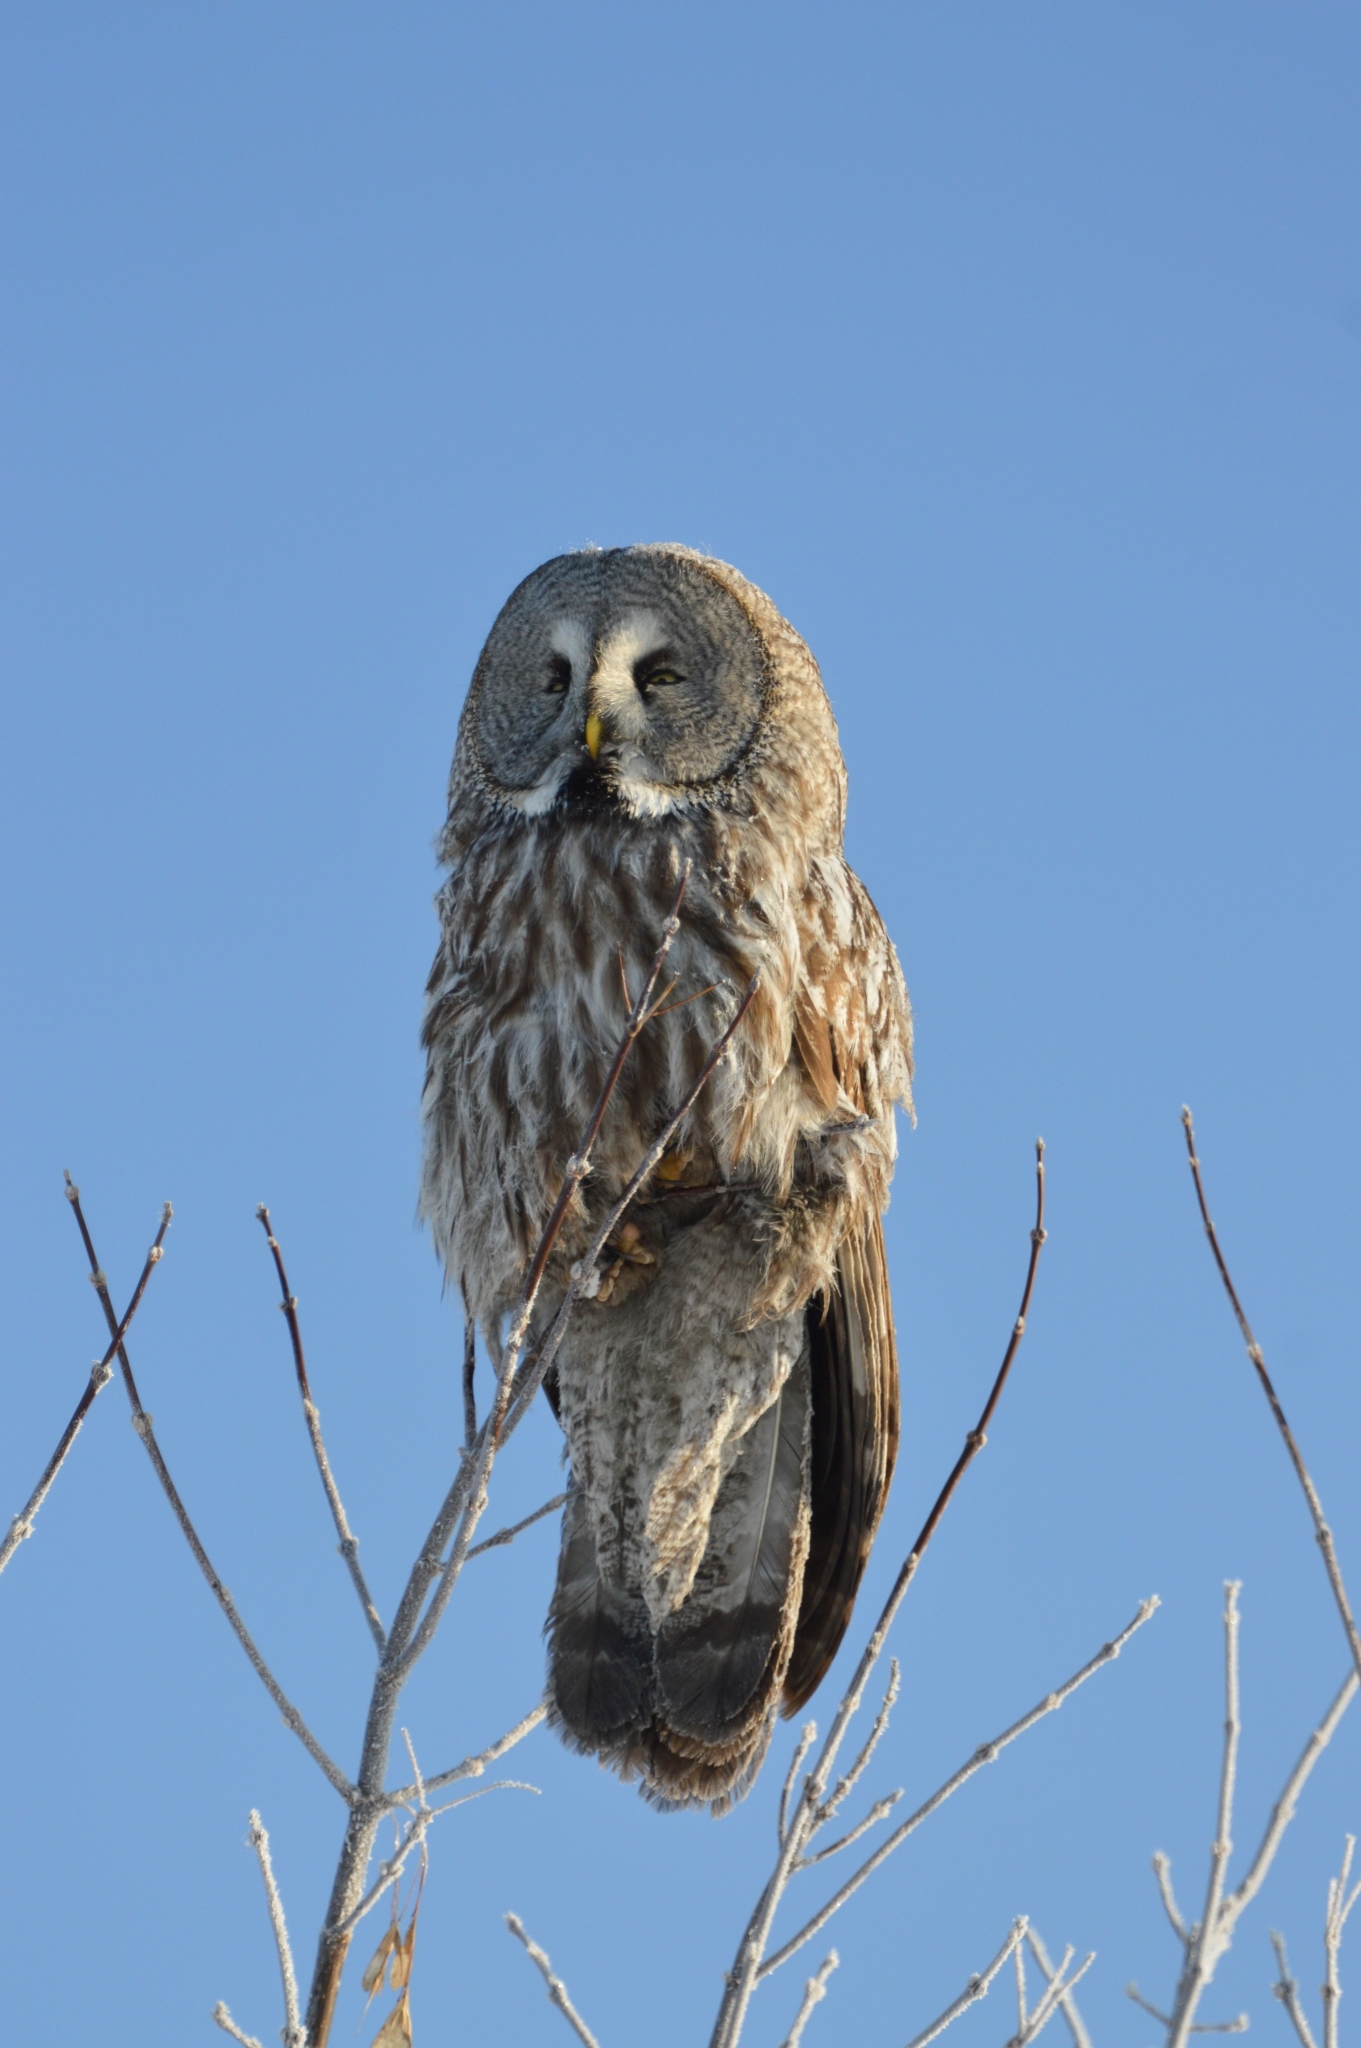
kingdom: Animalia
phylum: Chordata
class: Aves
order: Strigiformes
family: Strigidae
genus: Strix
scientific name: Strix nebulosa
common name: Great grey owl
